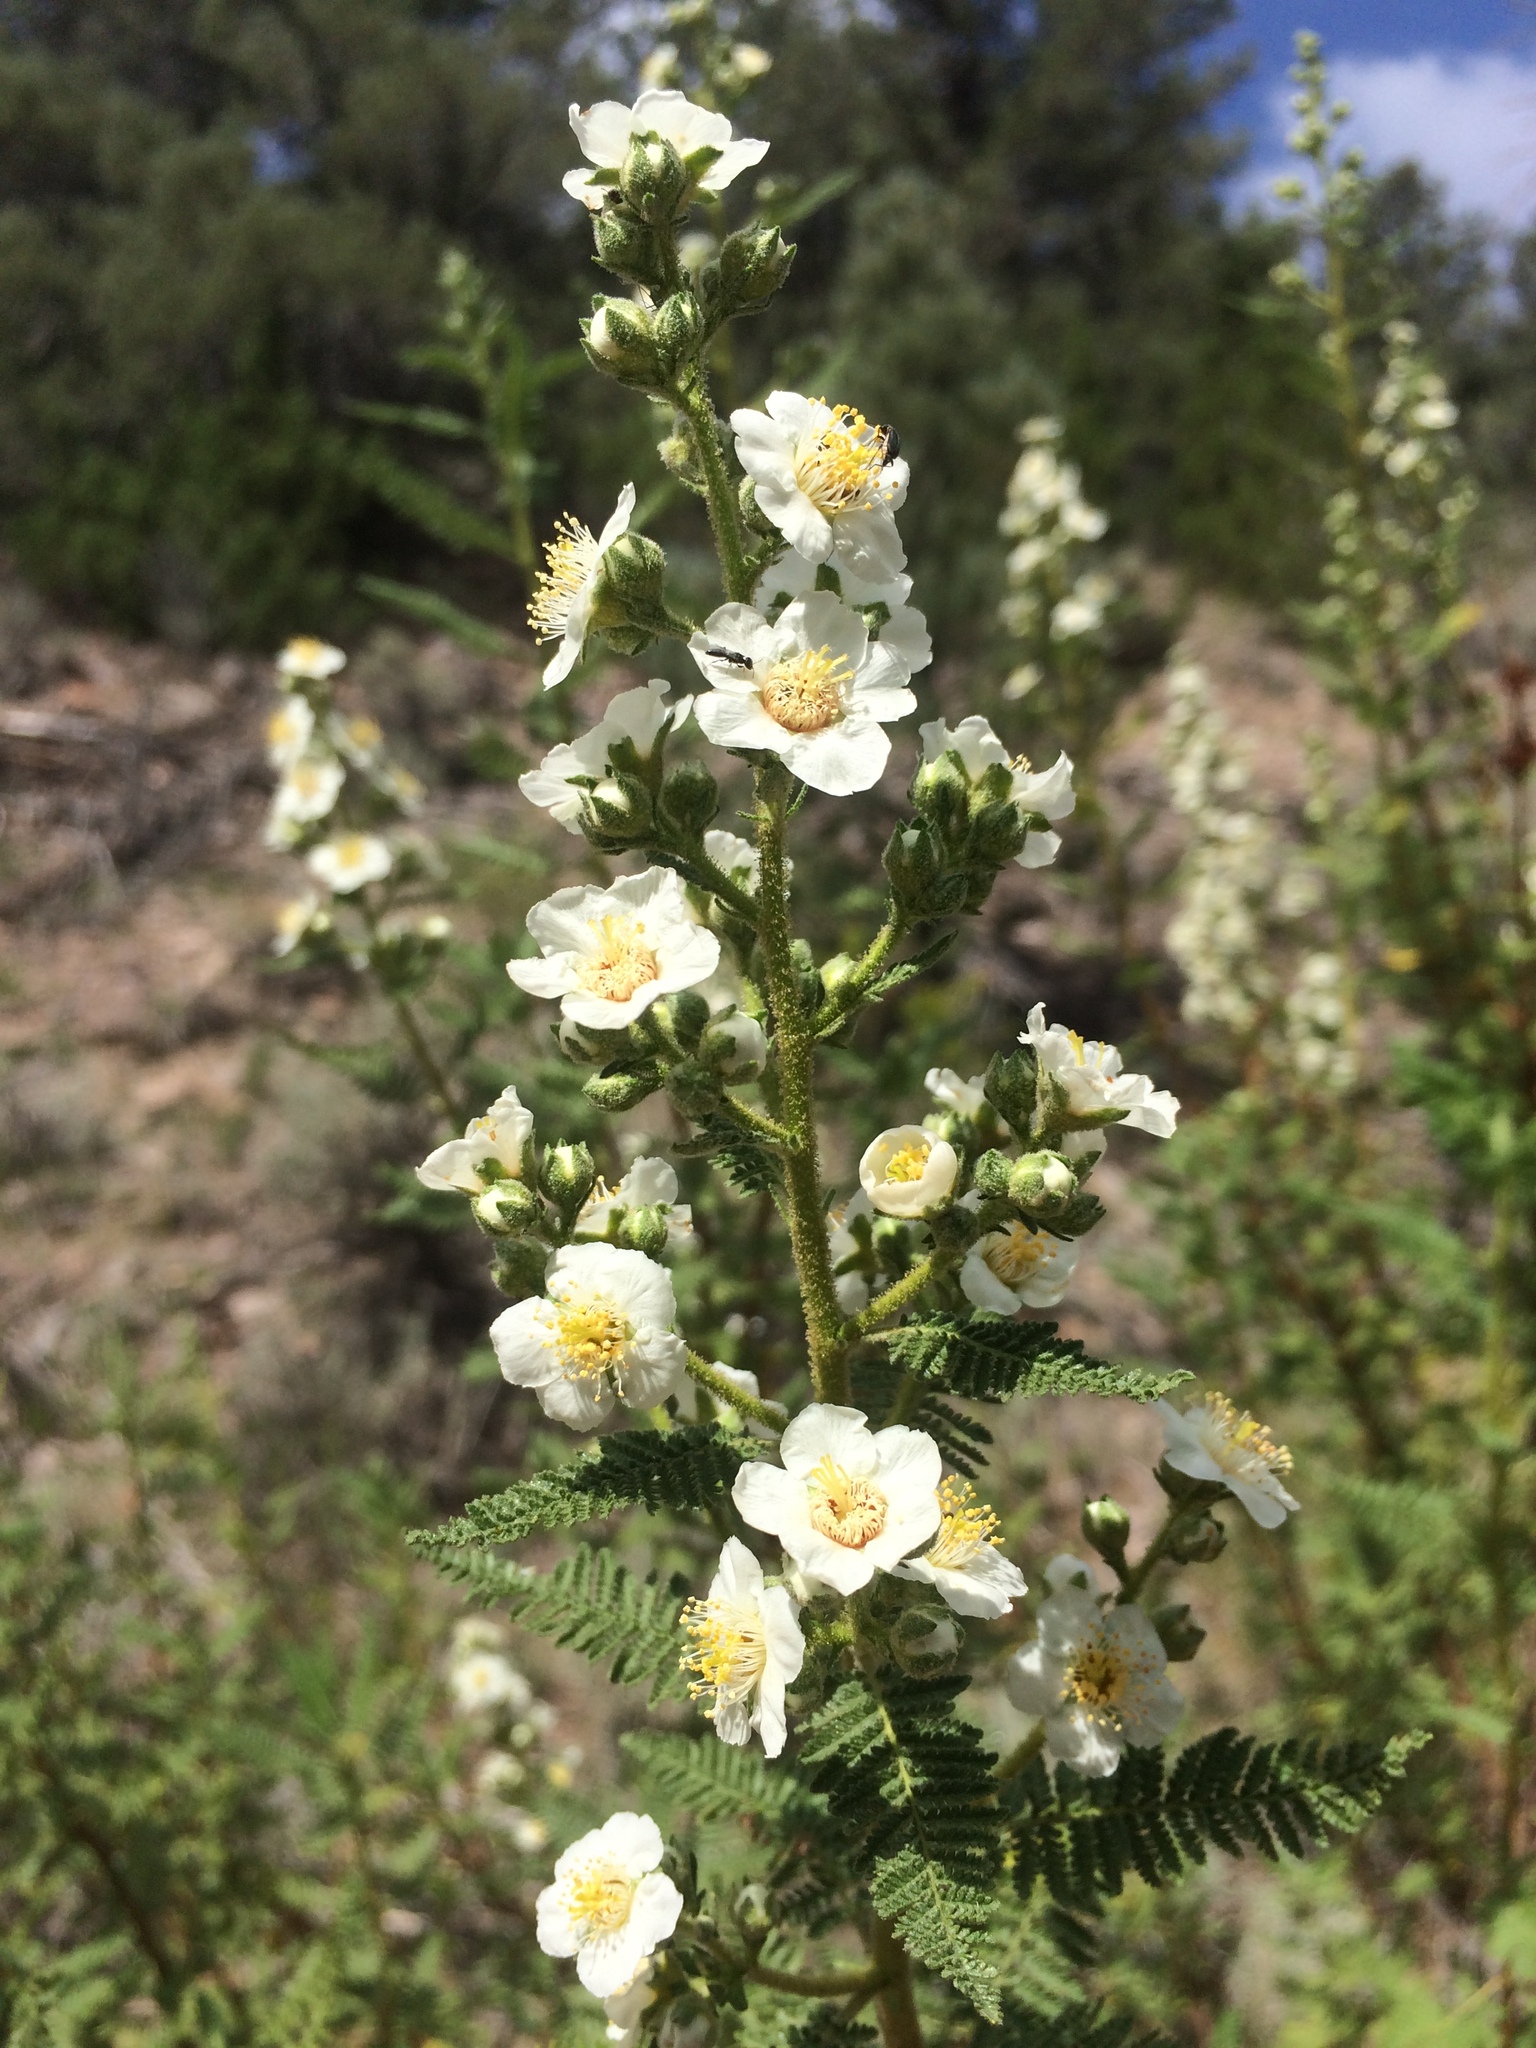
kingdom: Plantae
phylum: Tracheophyta
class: Magnoliopsida
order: Rosales
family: Rosaceae
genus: Chamaebatiaria
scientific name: Chamaebatiaria millefolium
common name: Fernbush
